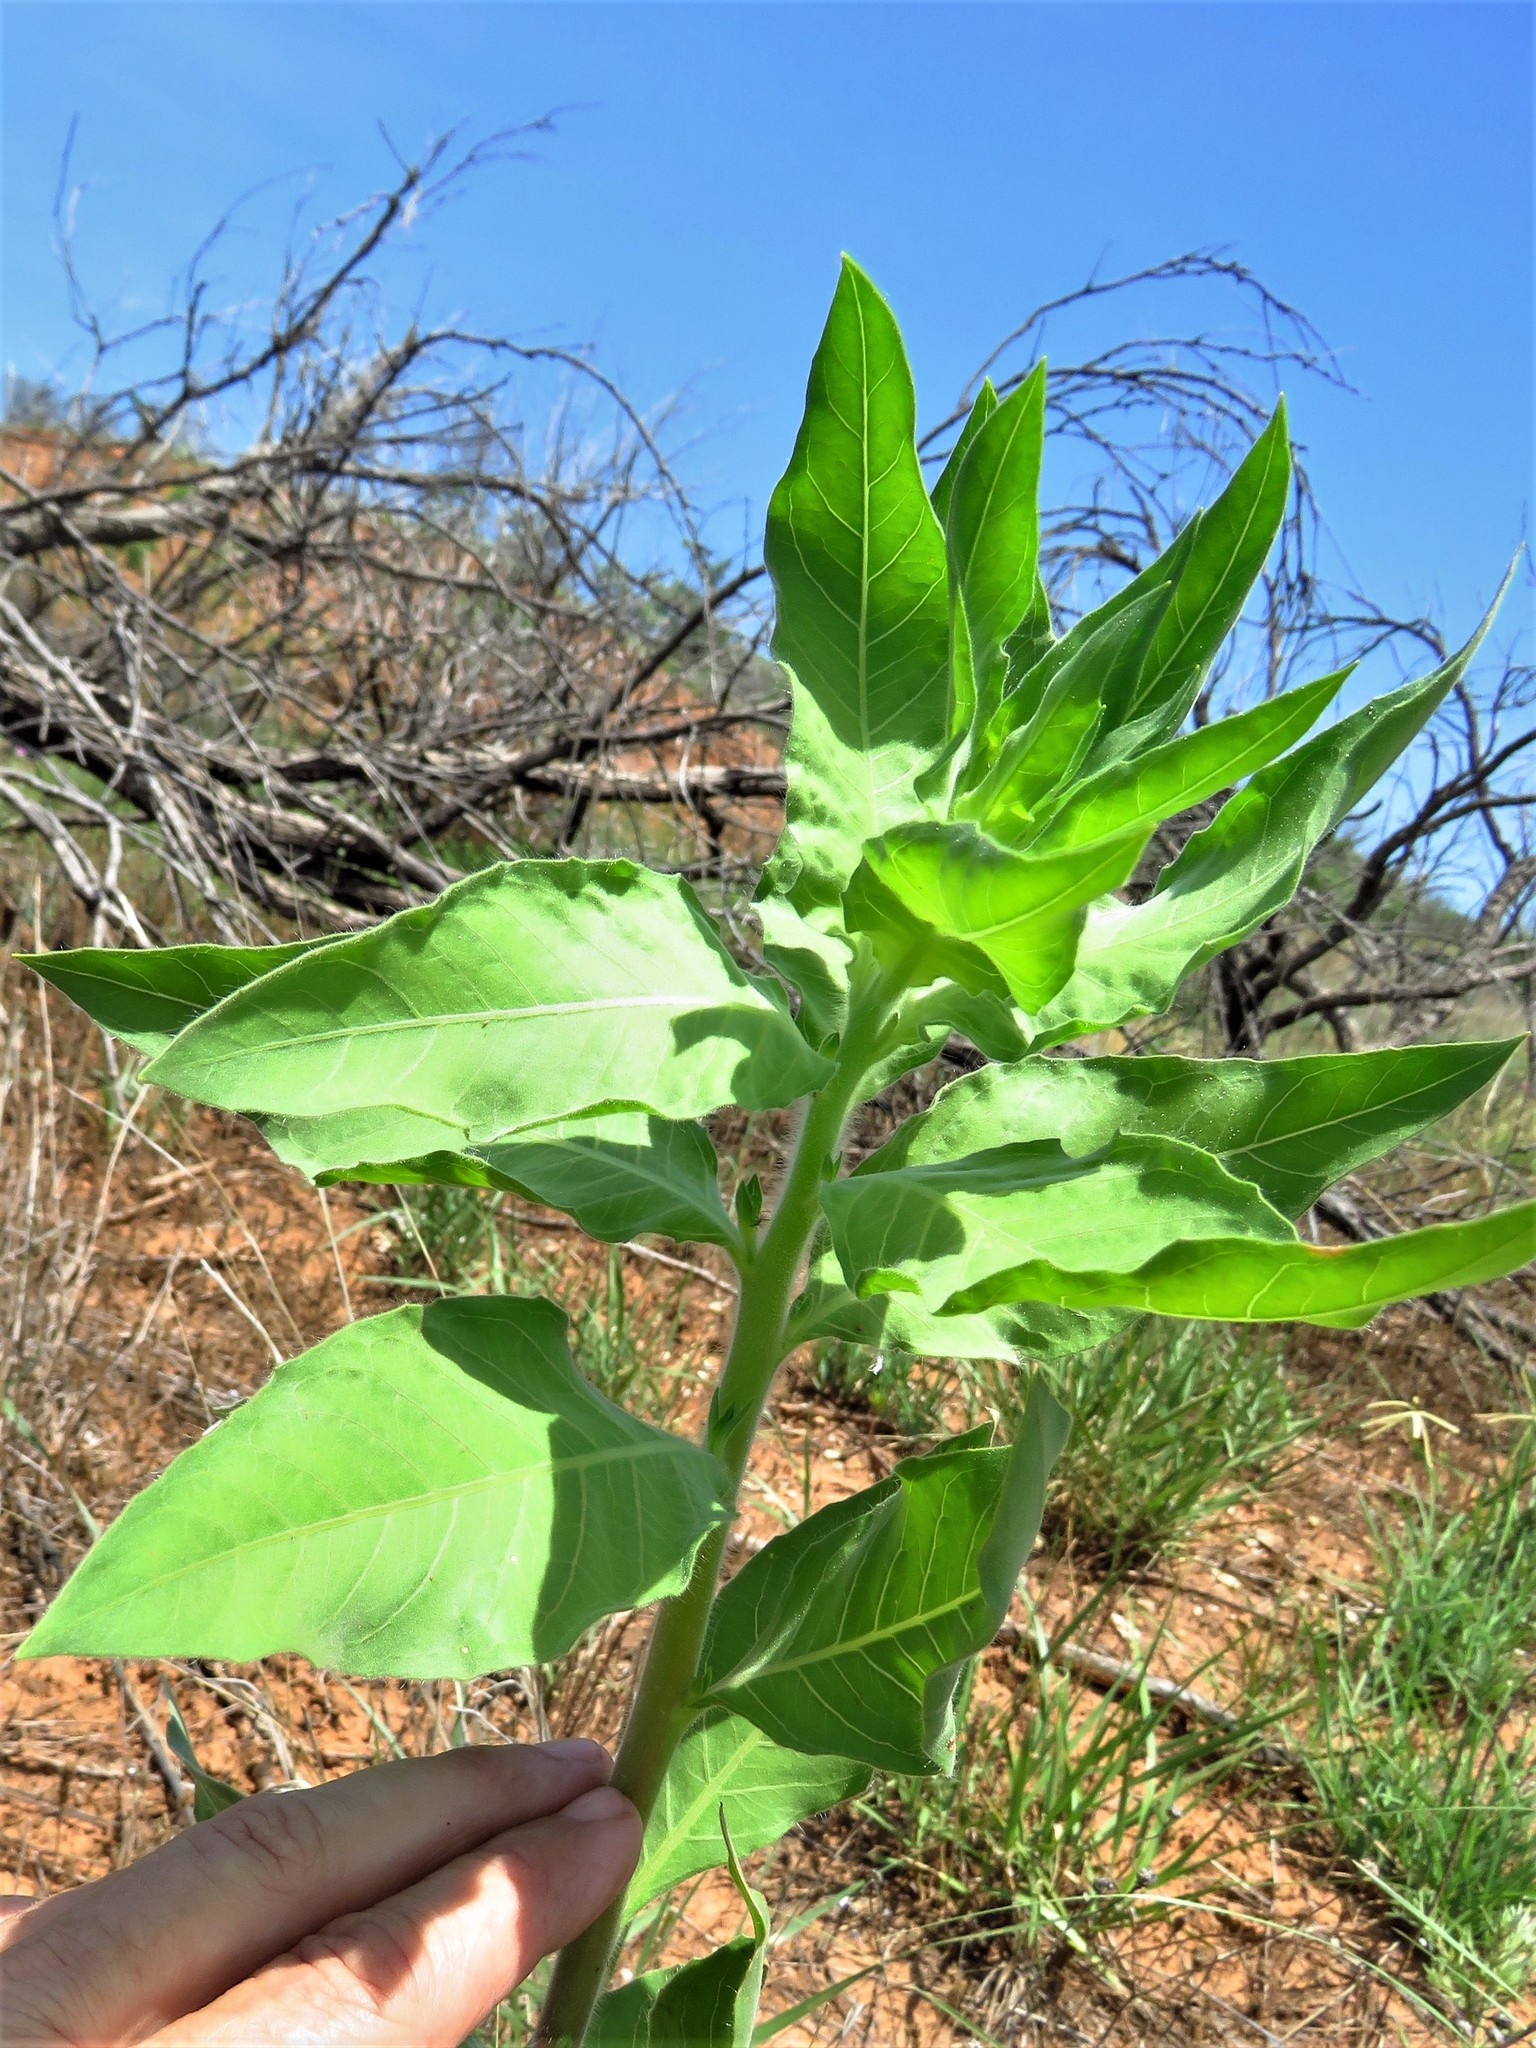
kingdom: Plantae
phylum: Tracheophyta
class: Magnoliopsida
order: Myrtales
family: Onagraceae
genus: Oenothera
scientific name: Oenothera curtiflora
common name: Velvetweed
